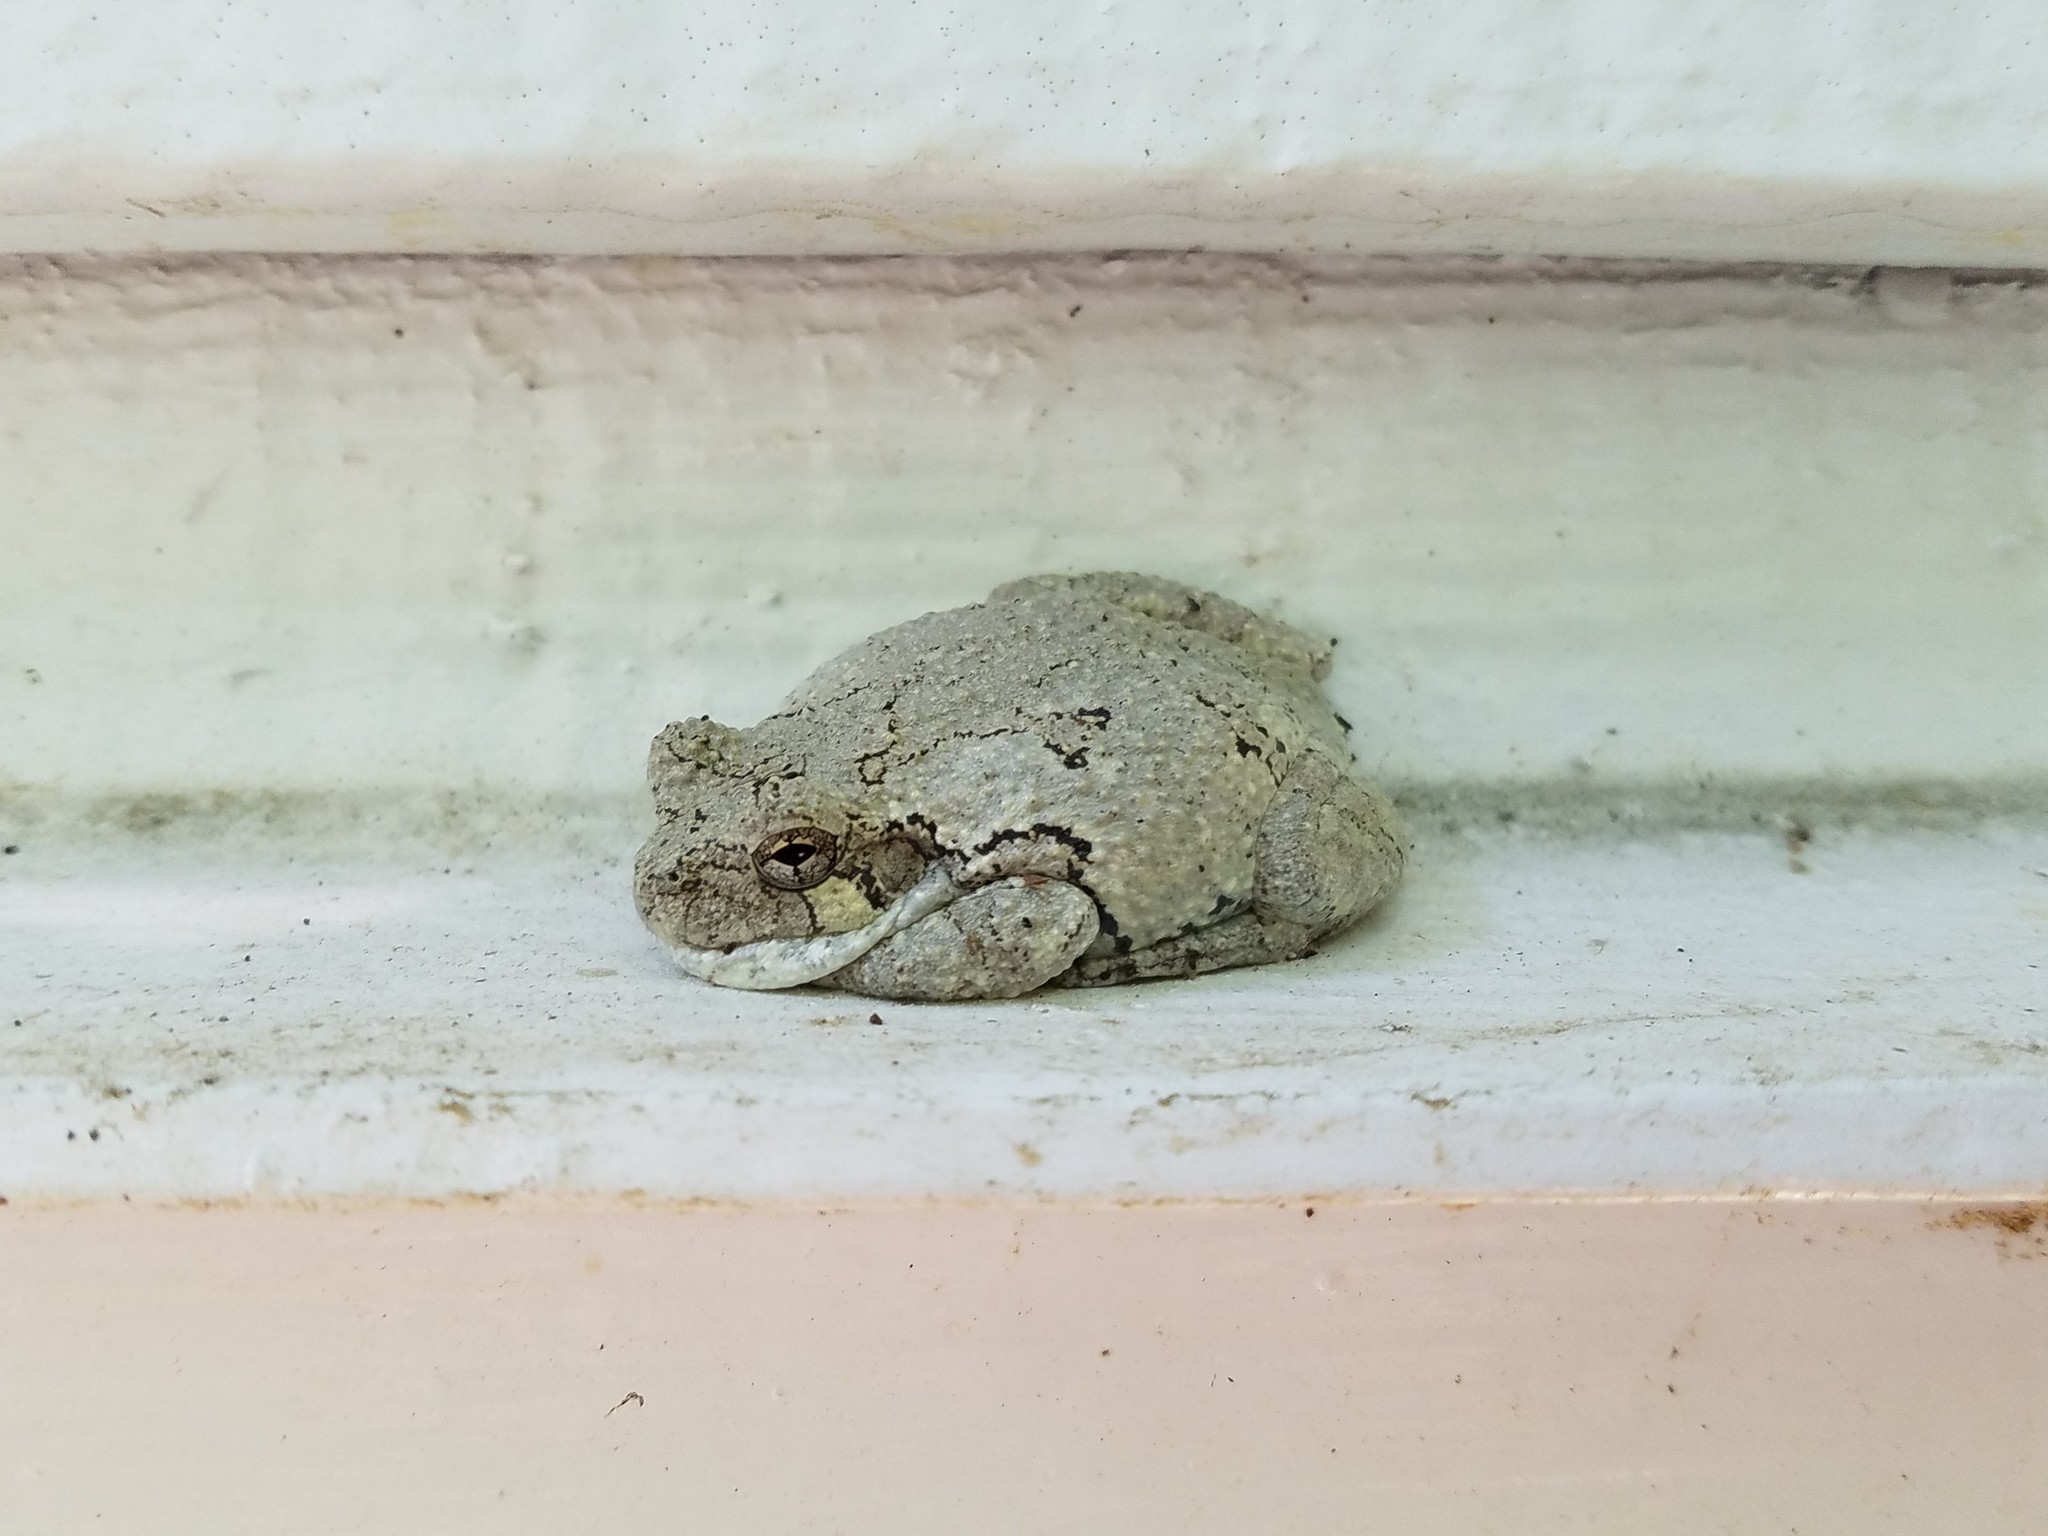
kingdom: Animalia
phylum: Chordata
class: Amphibia
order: Anura
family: Hylidae
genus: Dryophytes
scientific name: Dryophytes chrysoscelis
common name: Cope's gray treefrog
